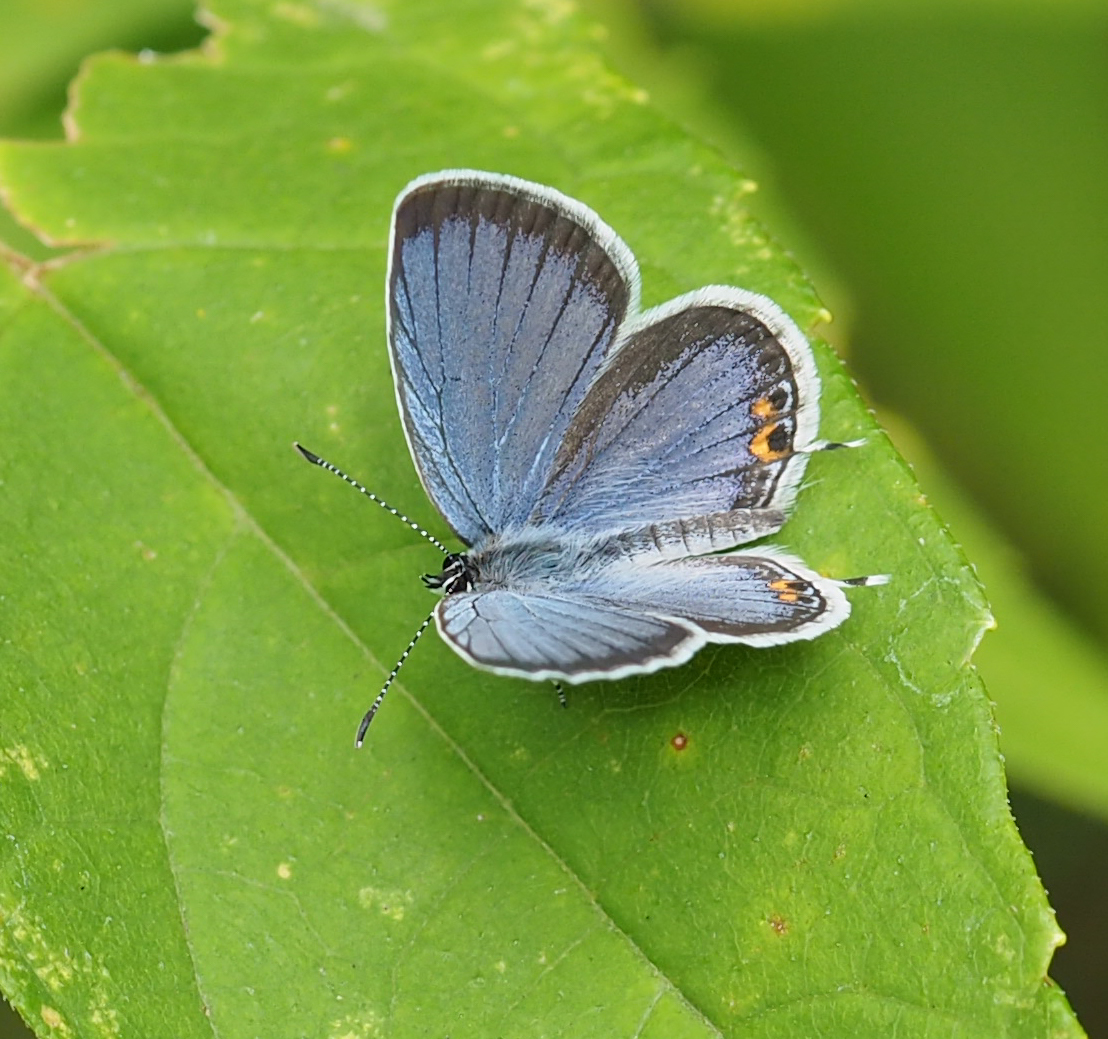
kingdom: Animalia
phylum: Arthropoda
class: Insecta
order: Lepidoptera
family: Lycaenidae
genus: Elkalyce
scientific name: Elkalyce comyntas
